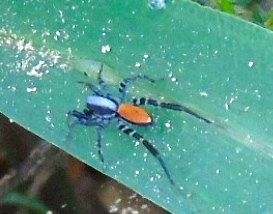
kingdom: Animalia
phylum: Arthropoda
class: Arachnida
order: Araneae
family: Corinnidae
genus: Castianeira
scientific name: Castianeira
